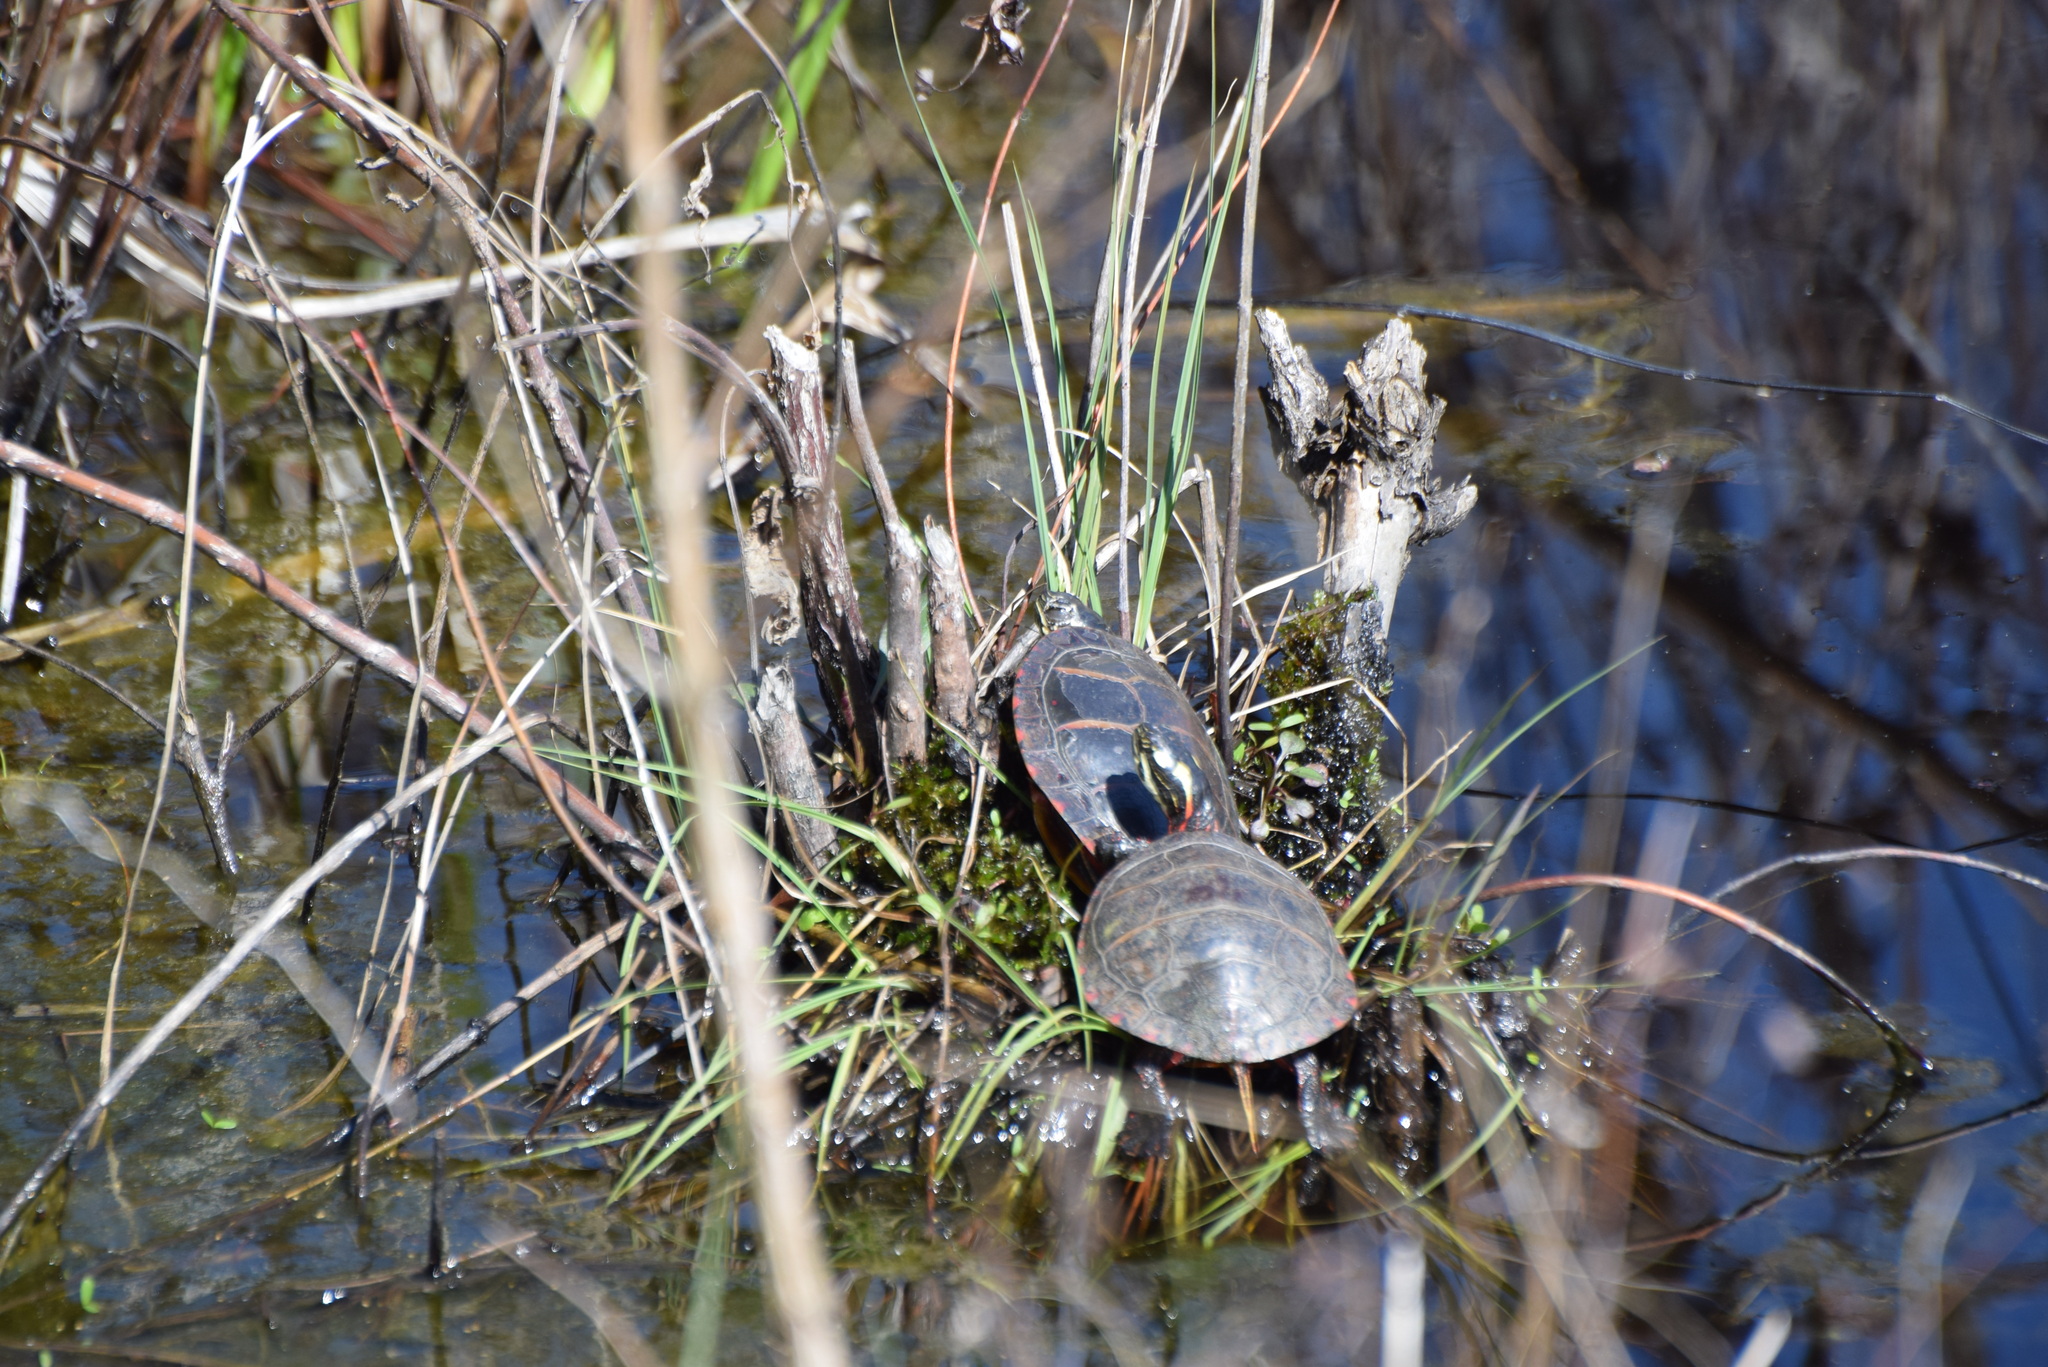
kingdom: Animalia
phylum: Chordata
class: Testudines
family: Emydidae
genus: Chrysemys
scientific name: Chrysemys picta
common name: Painted turtle
